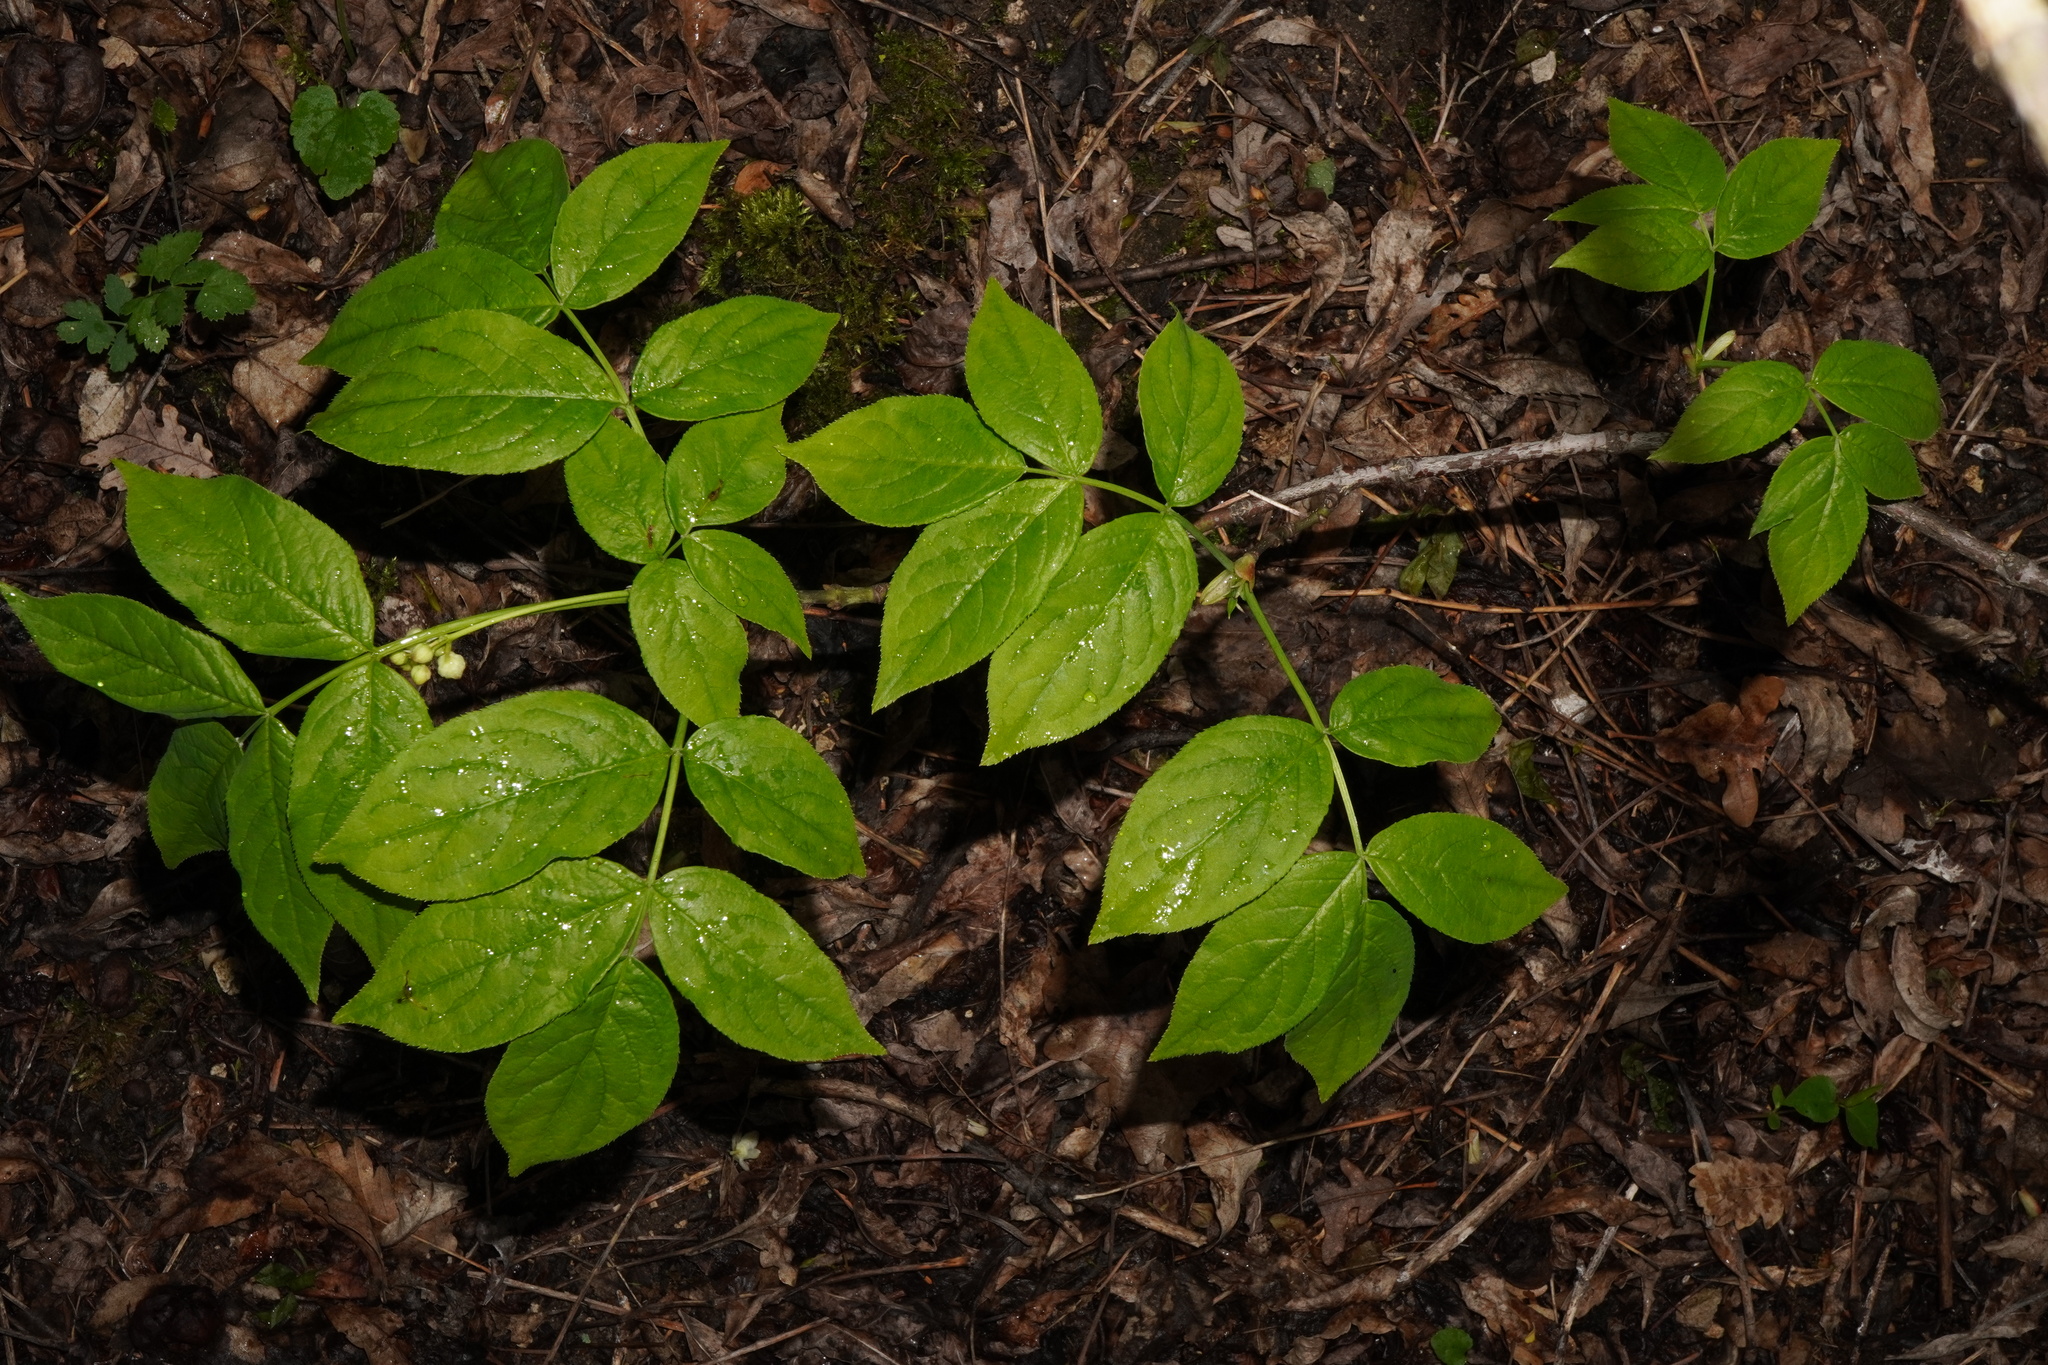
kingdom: Plantae
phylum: Tracheophyta
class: Magnoliopsida
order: Crossosomatales
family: Staphyleaceae
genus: Staphylea
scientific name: Staphylea pinnata
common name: Bladdernut
